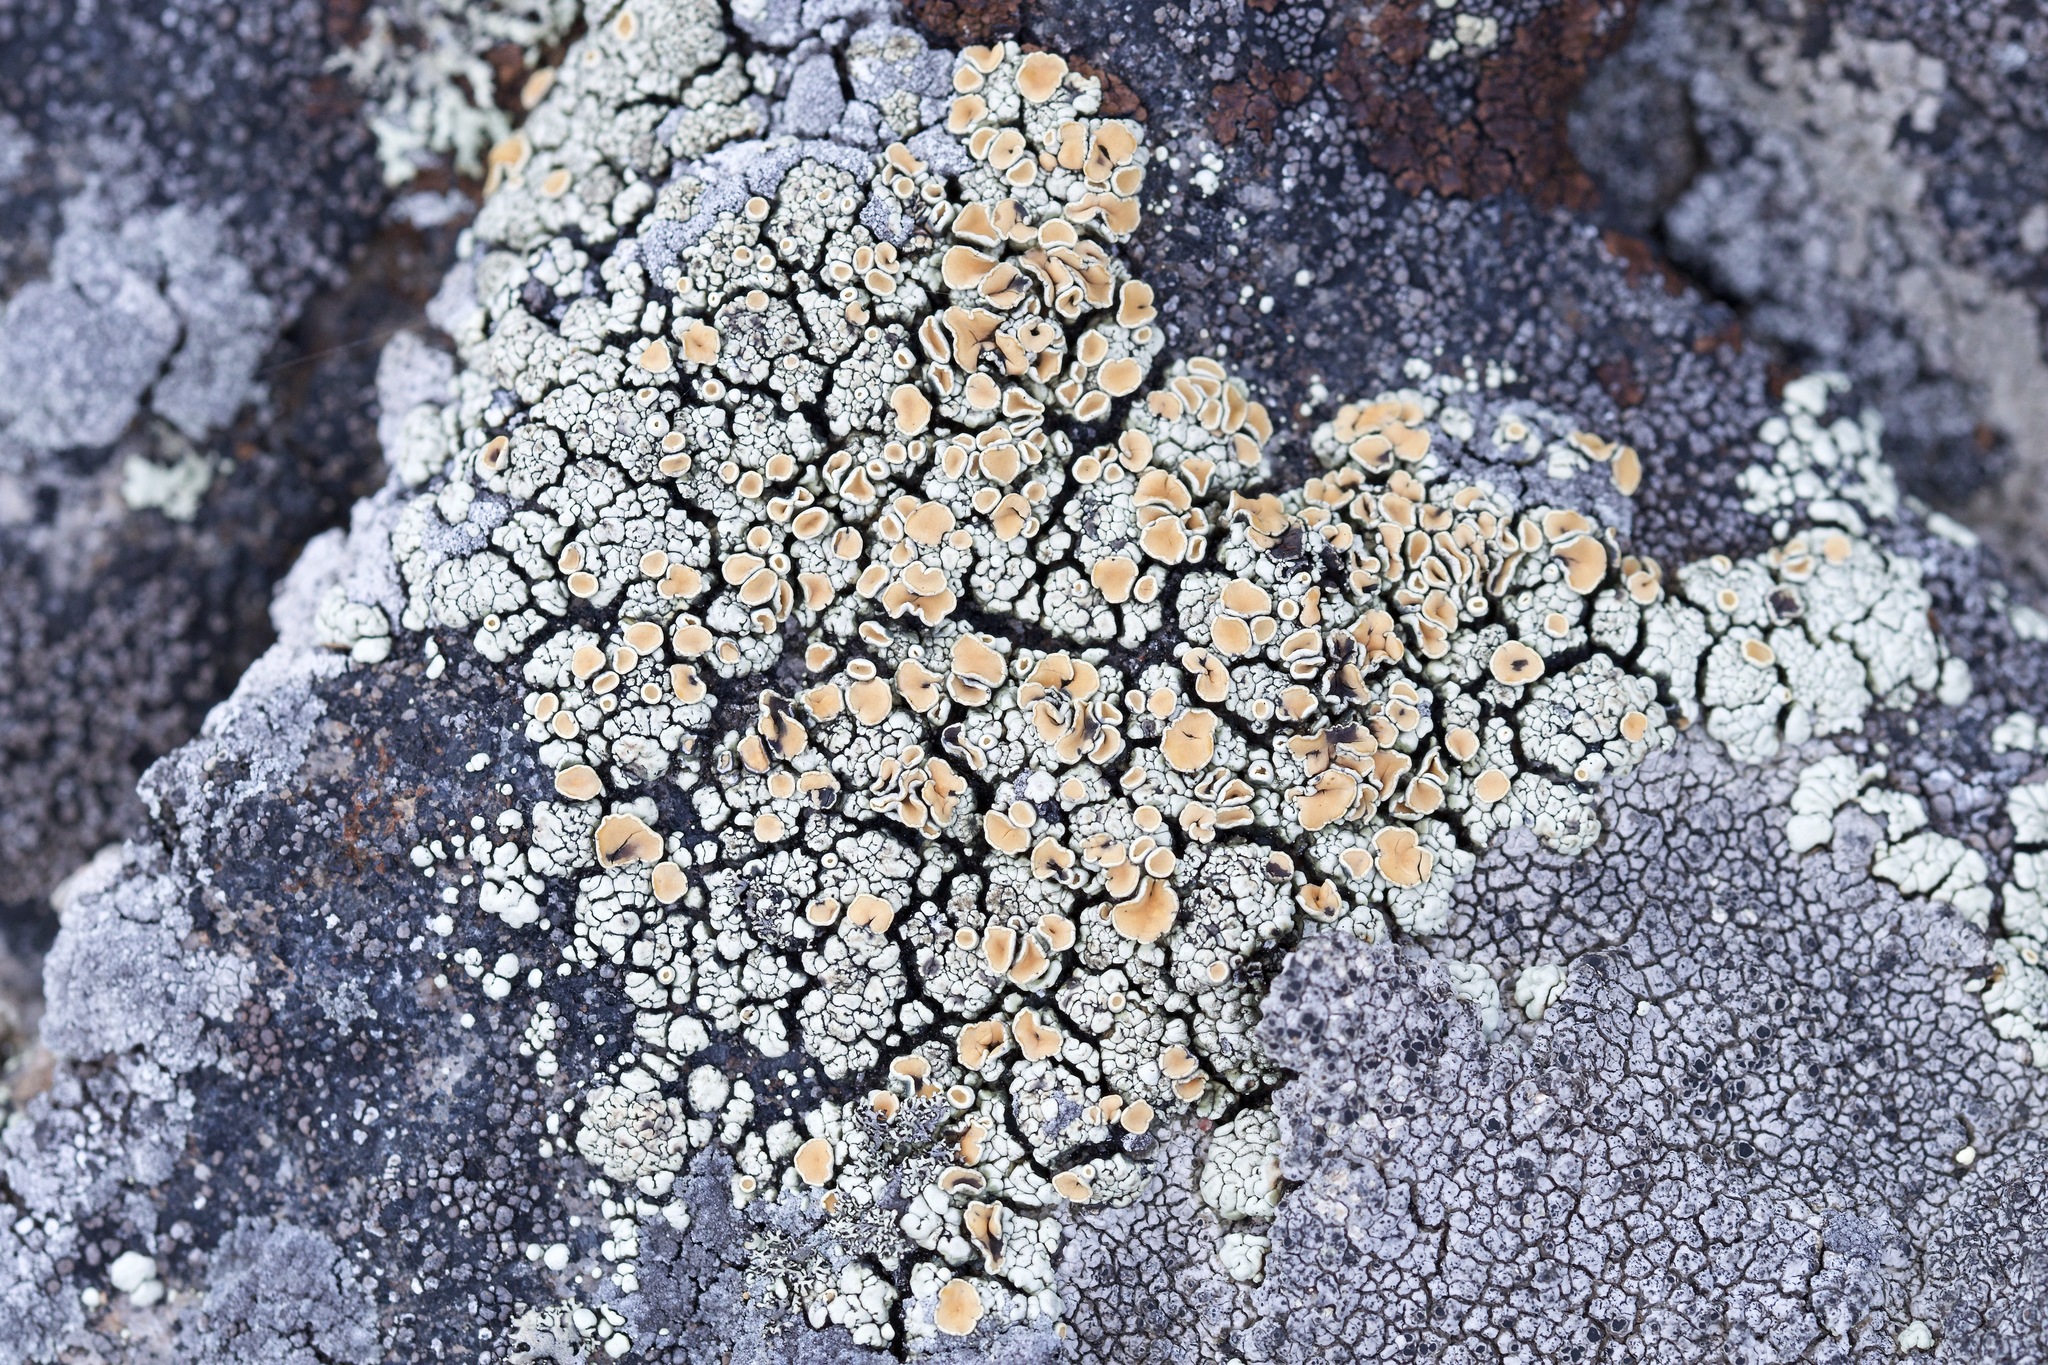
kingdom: Fungi
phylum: Ascomycota
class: Lecanoromycetes
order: Lecanorales
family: Lecanoraceae
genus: Sedelnikovaea
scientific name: Sedelnikovaea subdiscrepans
